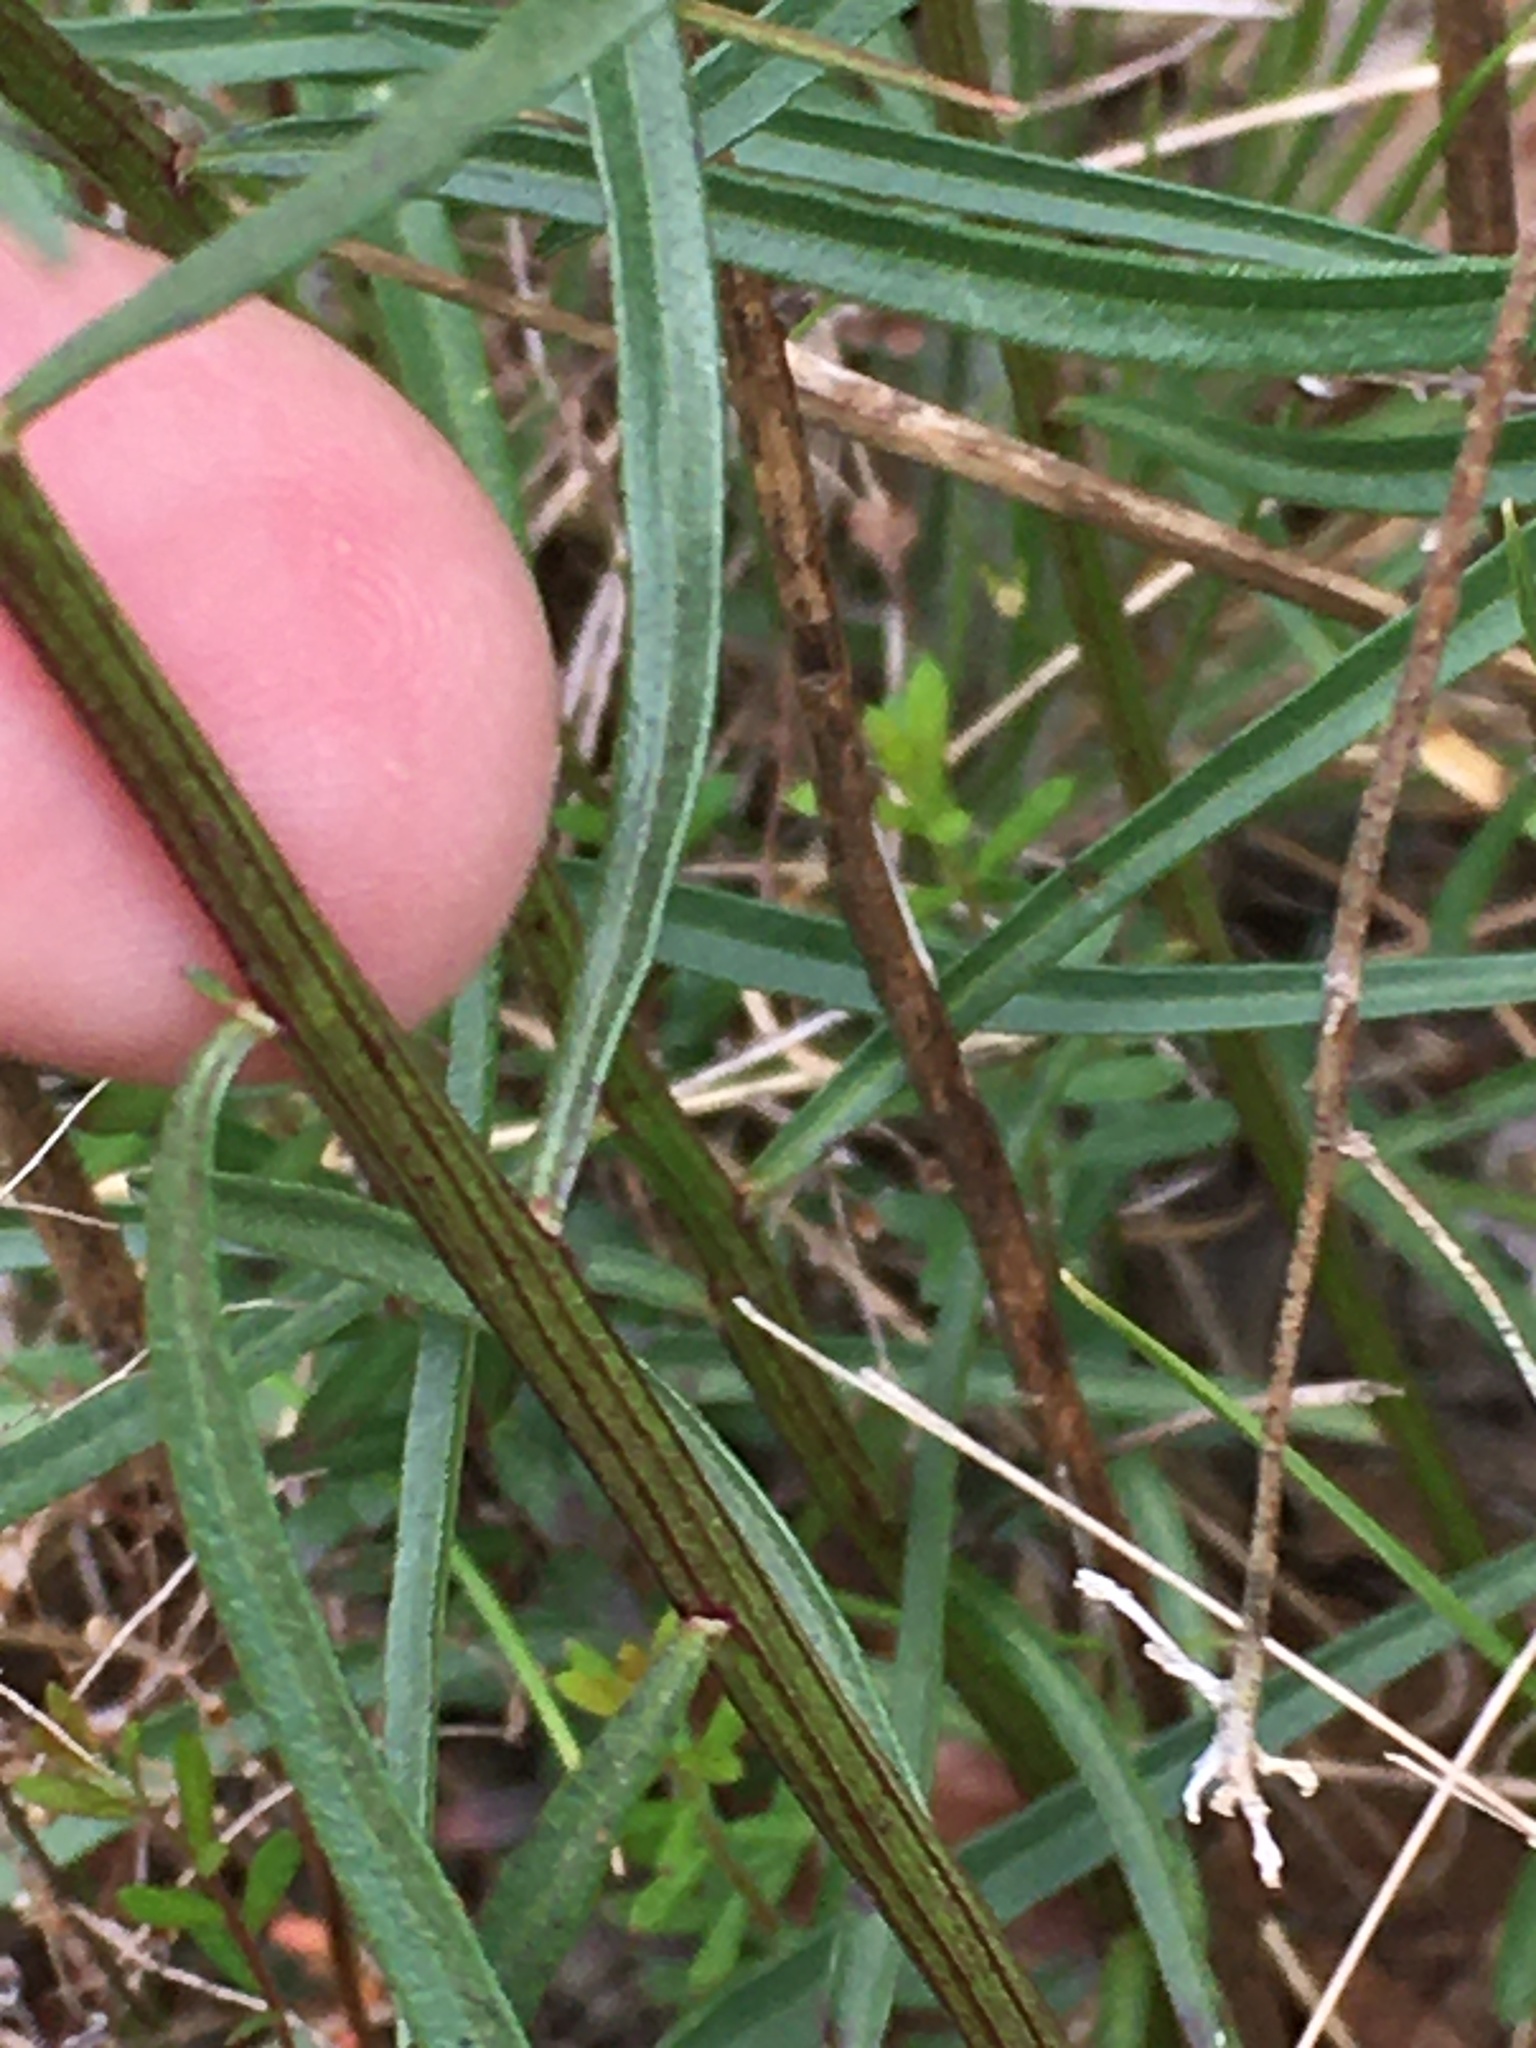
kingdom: Plantae
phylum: Tracheophyta
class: Magnoliopsida
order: Asterales
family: Asteraceae
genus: Sericocarpus
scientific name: Sericocarpus linifolius
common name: Narrow-leaf aster
